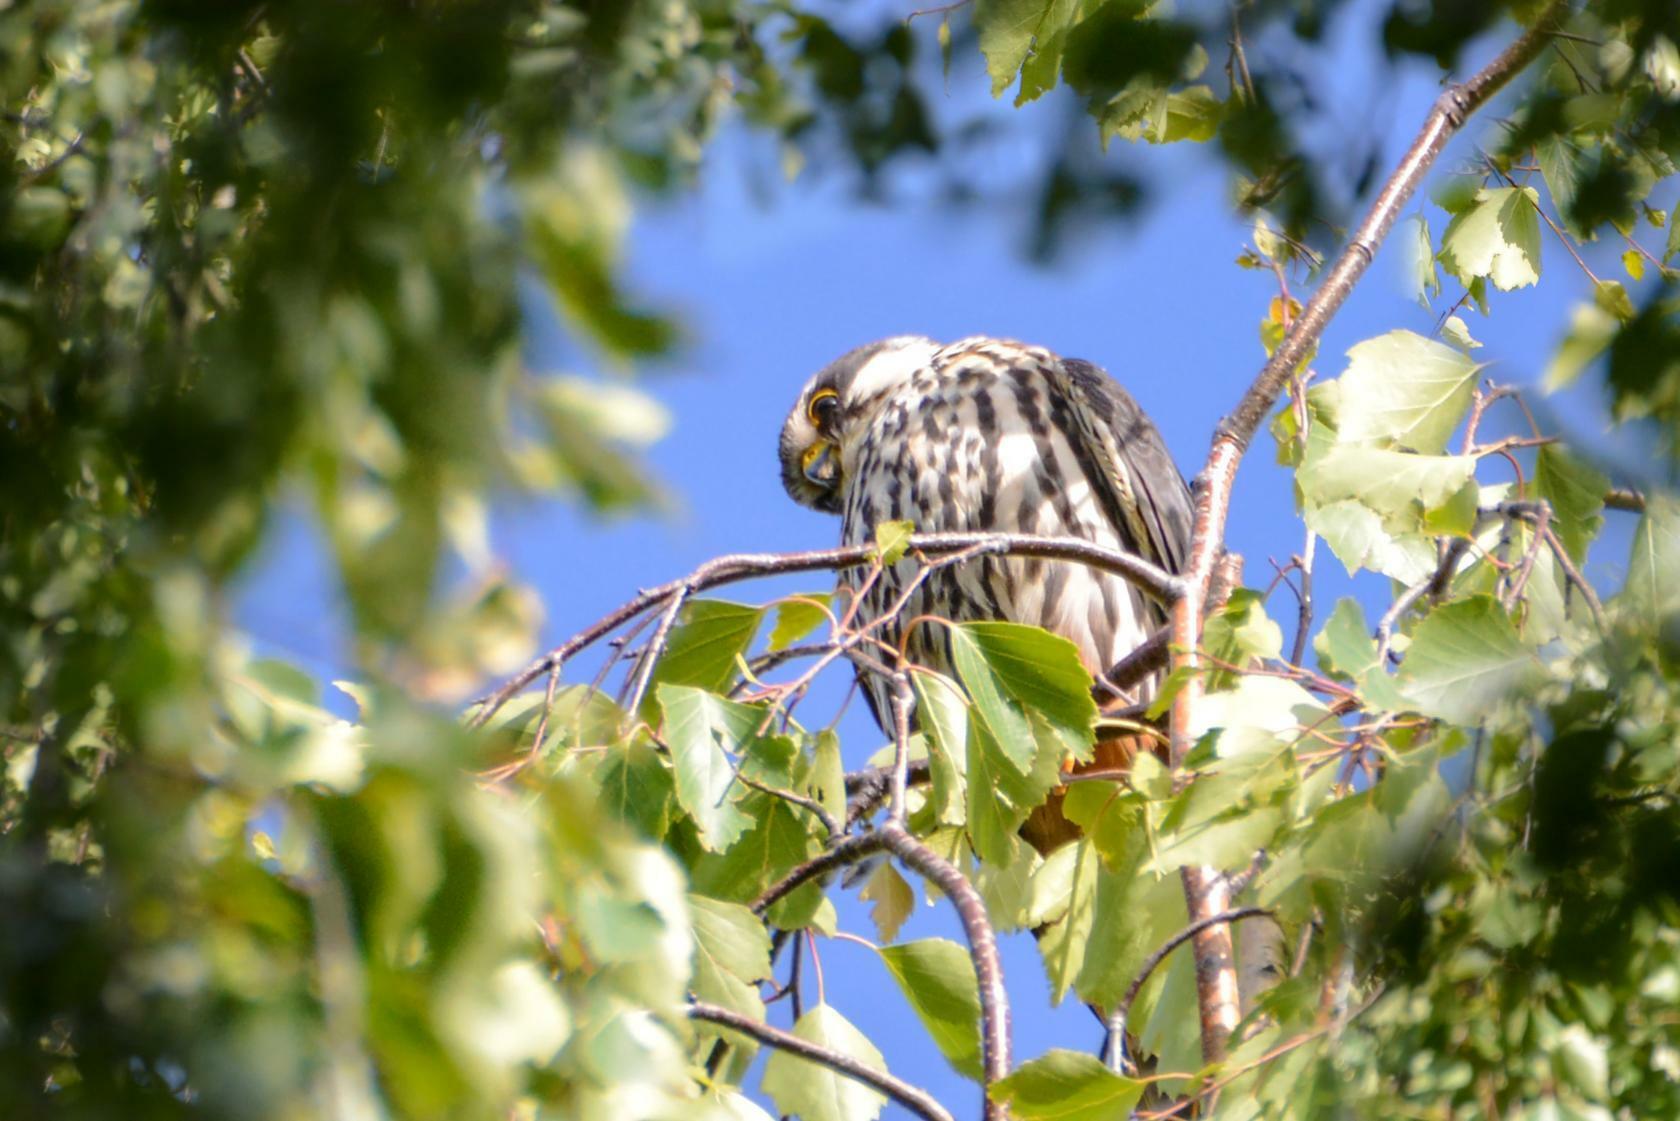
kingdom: Animalia
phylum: Chordata
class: Aves
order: Falconiformes
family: Falconidae
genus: Falco
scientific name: Falco subbuteo
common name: Eurasian hobby
